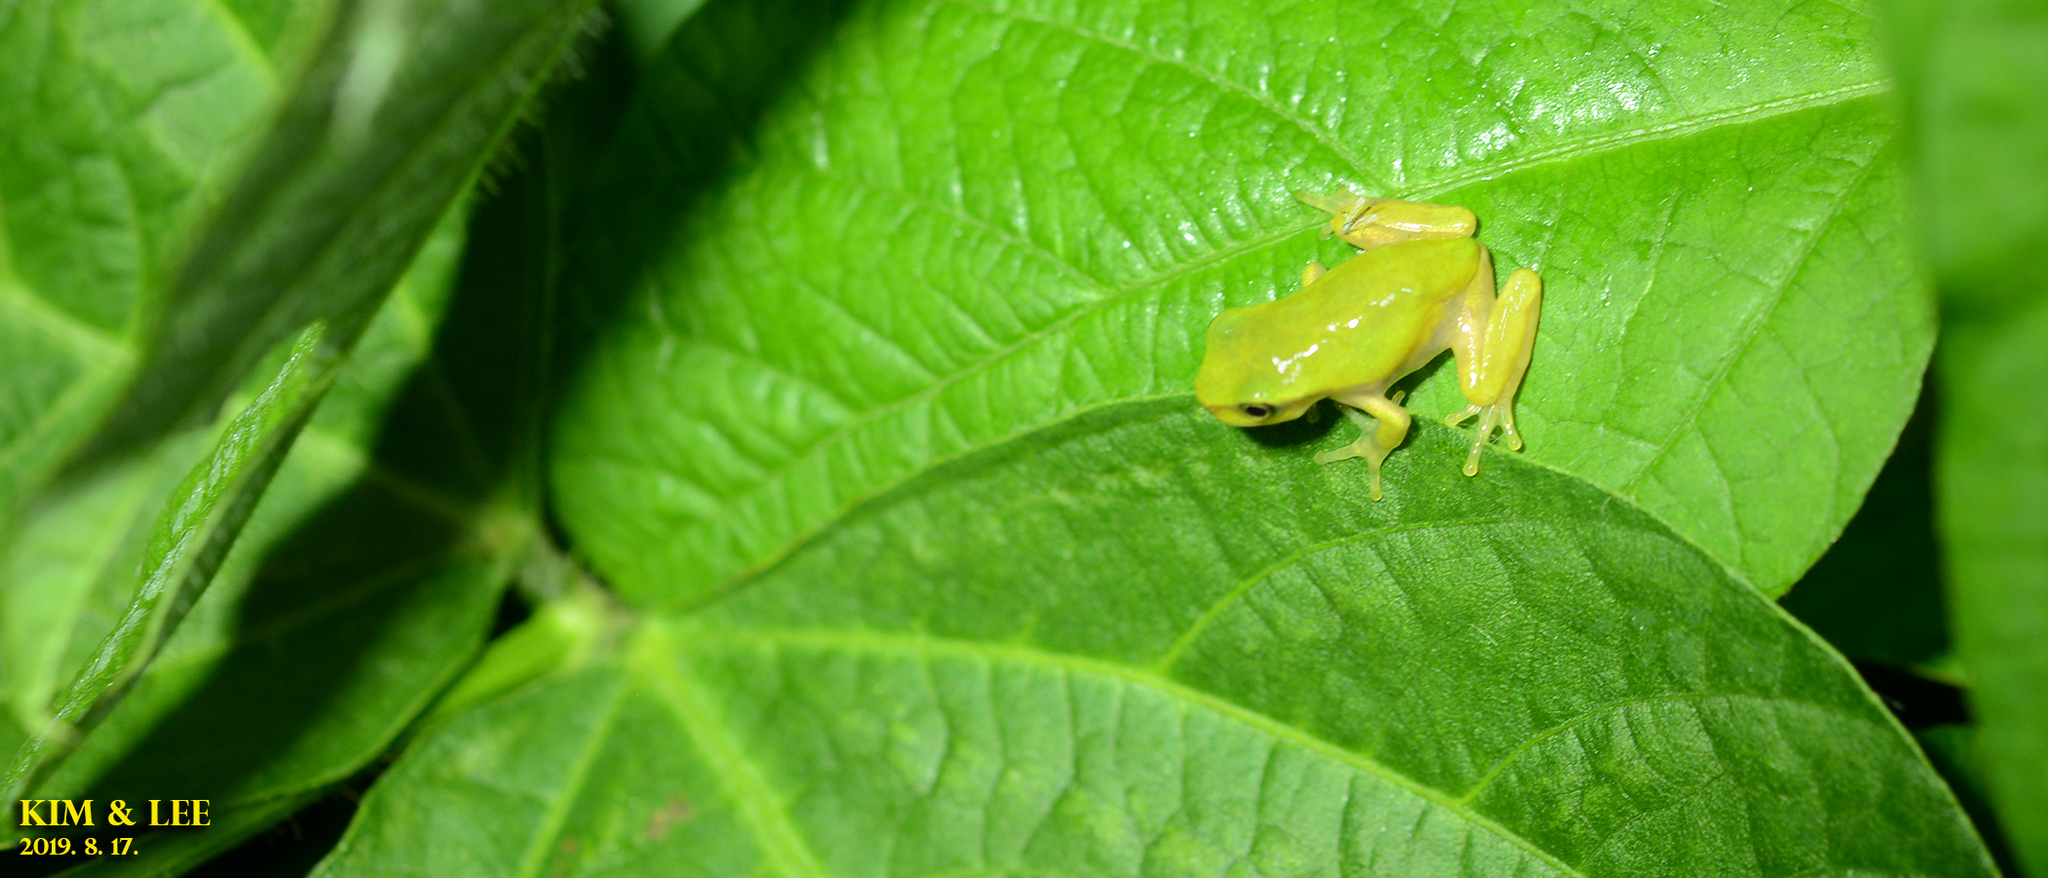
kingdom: Animalia
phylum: Chordata
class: Amphibia
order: Anura
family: Hylidae
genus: Dryophytes
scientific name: Dryophytes japonicus
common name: Japanese treefrog
